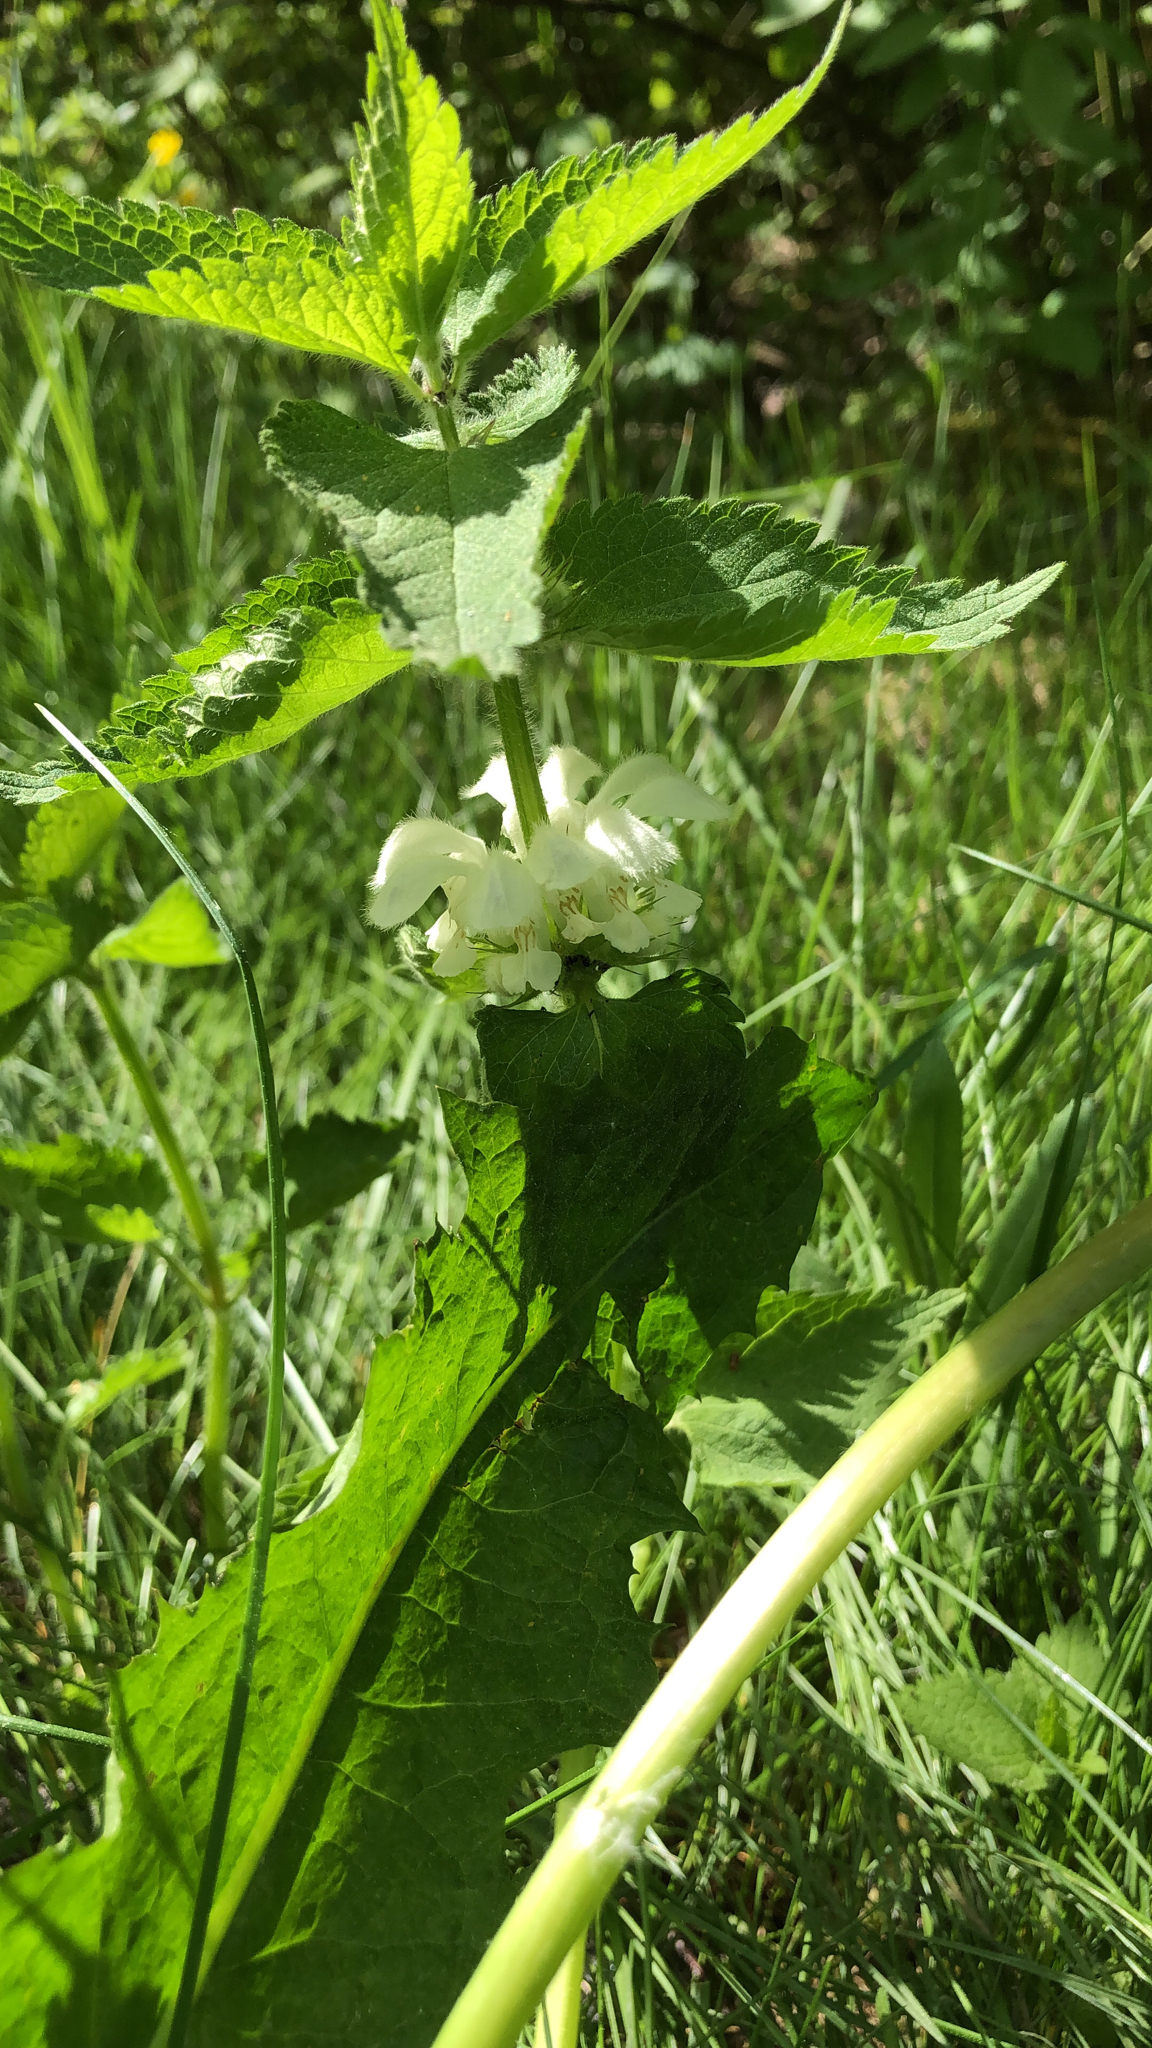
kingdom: Plantae
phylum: Tracheophyta
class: Magnoliopsida
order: Lamiales
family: Lamiaceae
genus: Lamium
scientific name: Lamium album
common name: White dead-nettle
